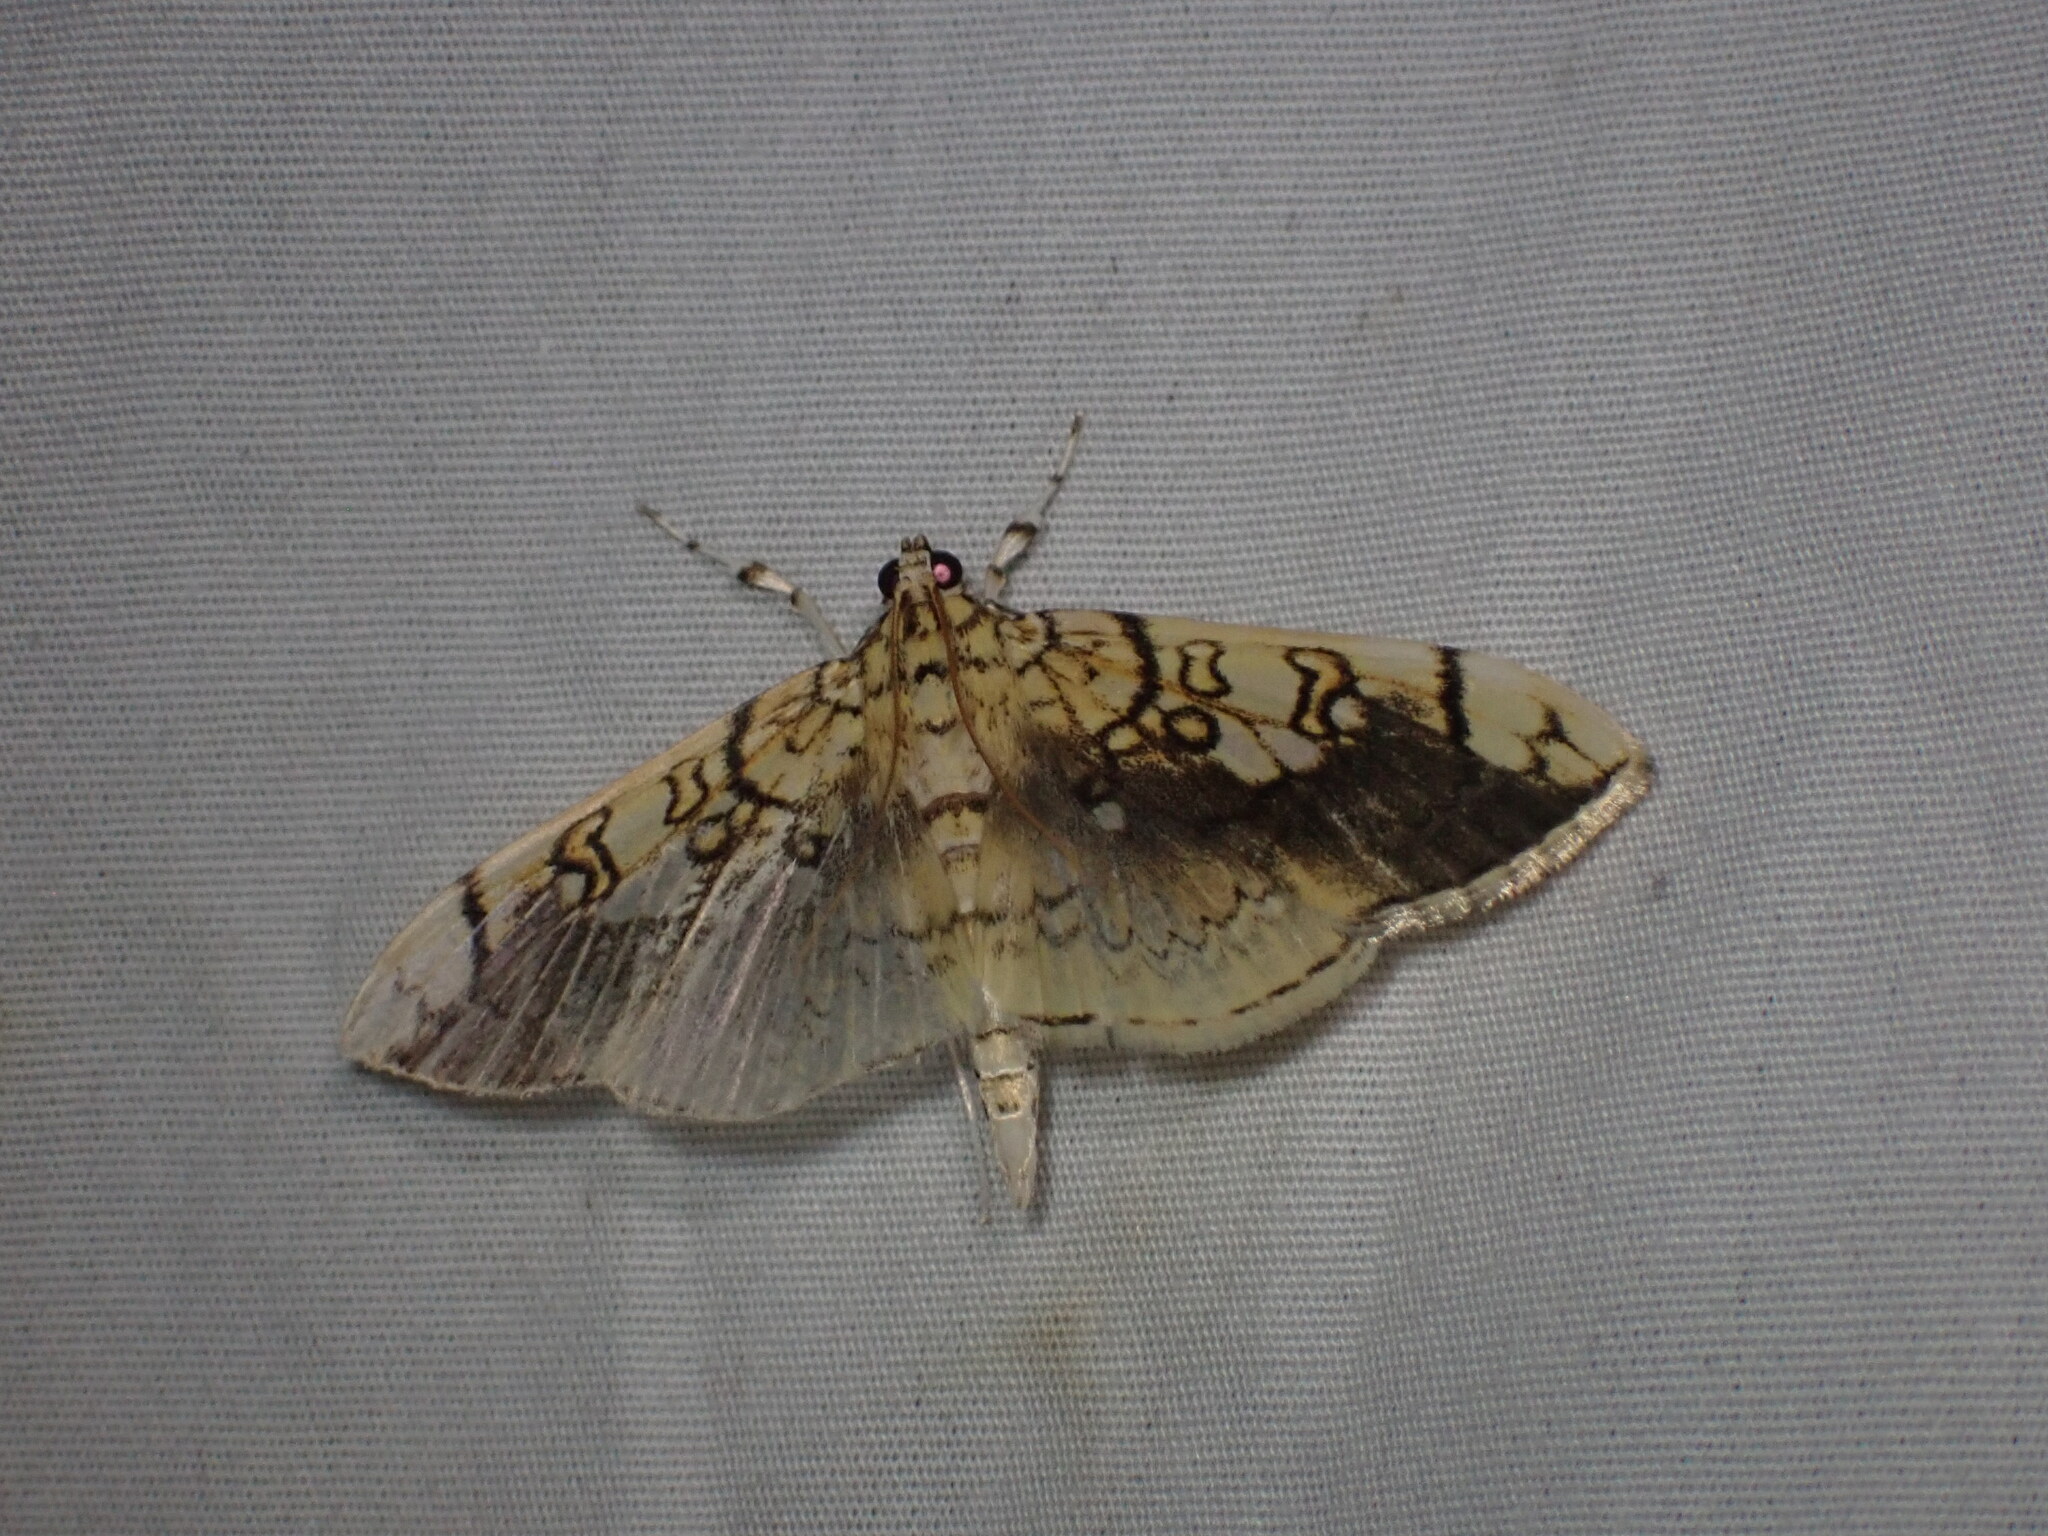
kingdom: Animalia
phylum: Arthropoda
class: Insecta
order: Lepidoptera
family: Crambidae
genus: Pantographa
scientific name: Pantographa limata
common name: Basswood leafroller moth
